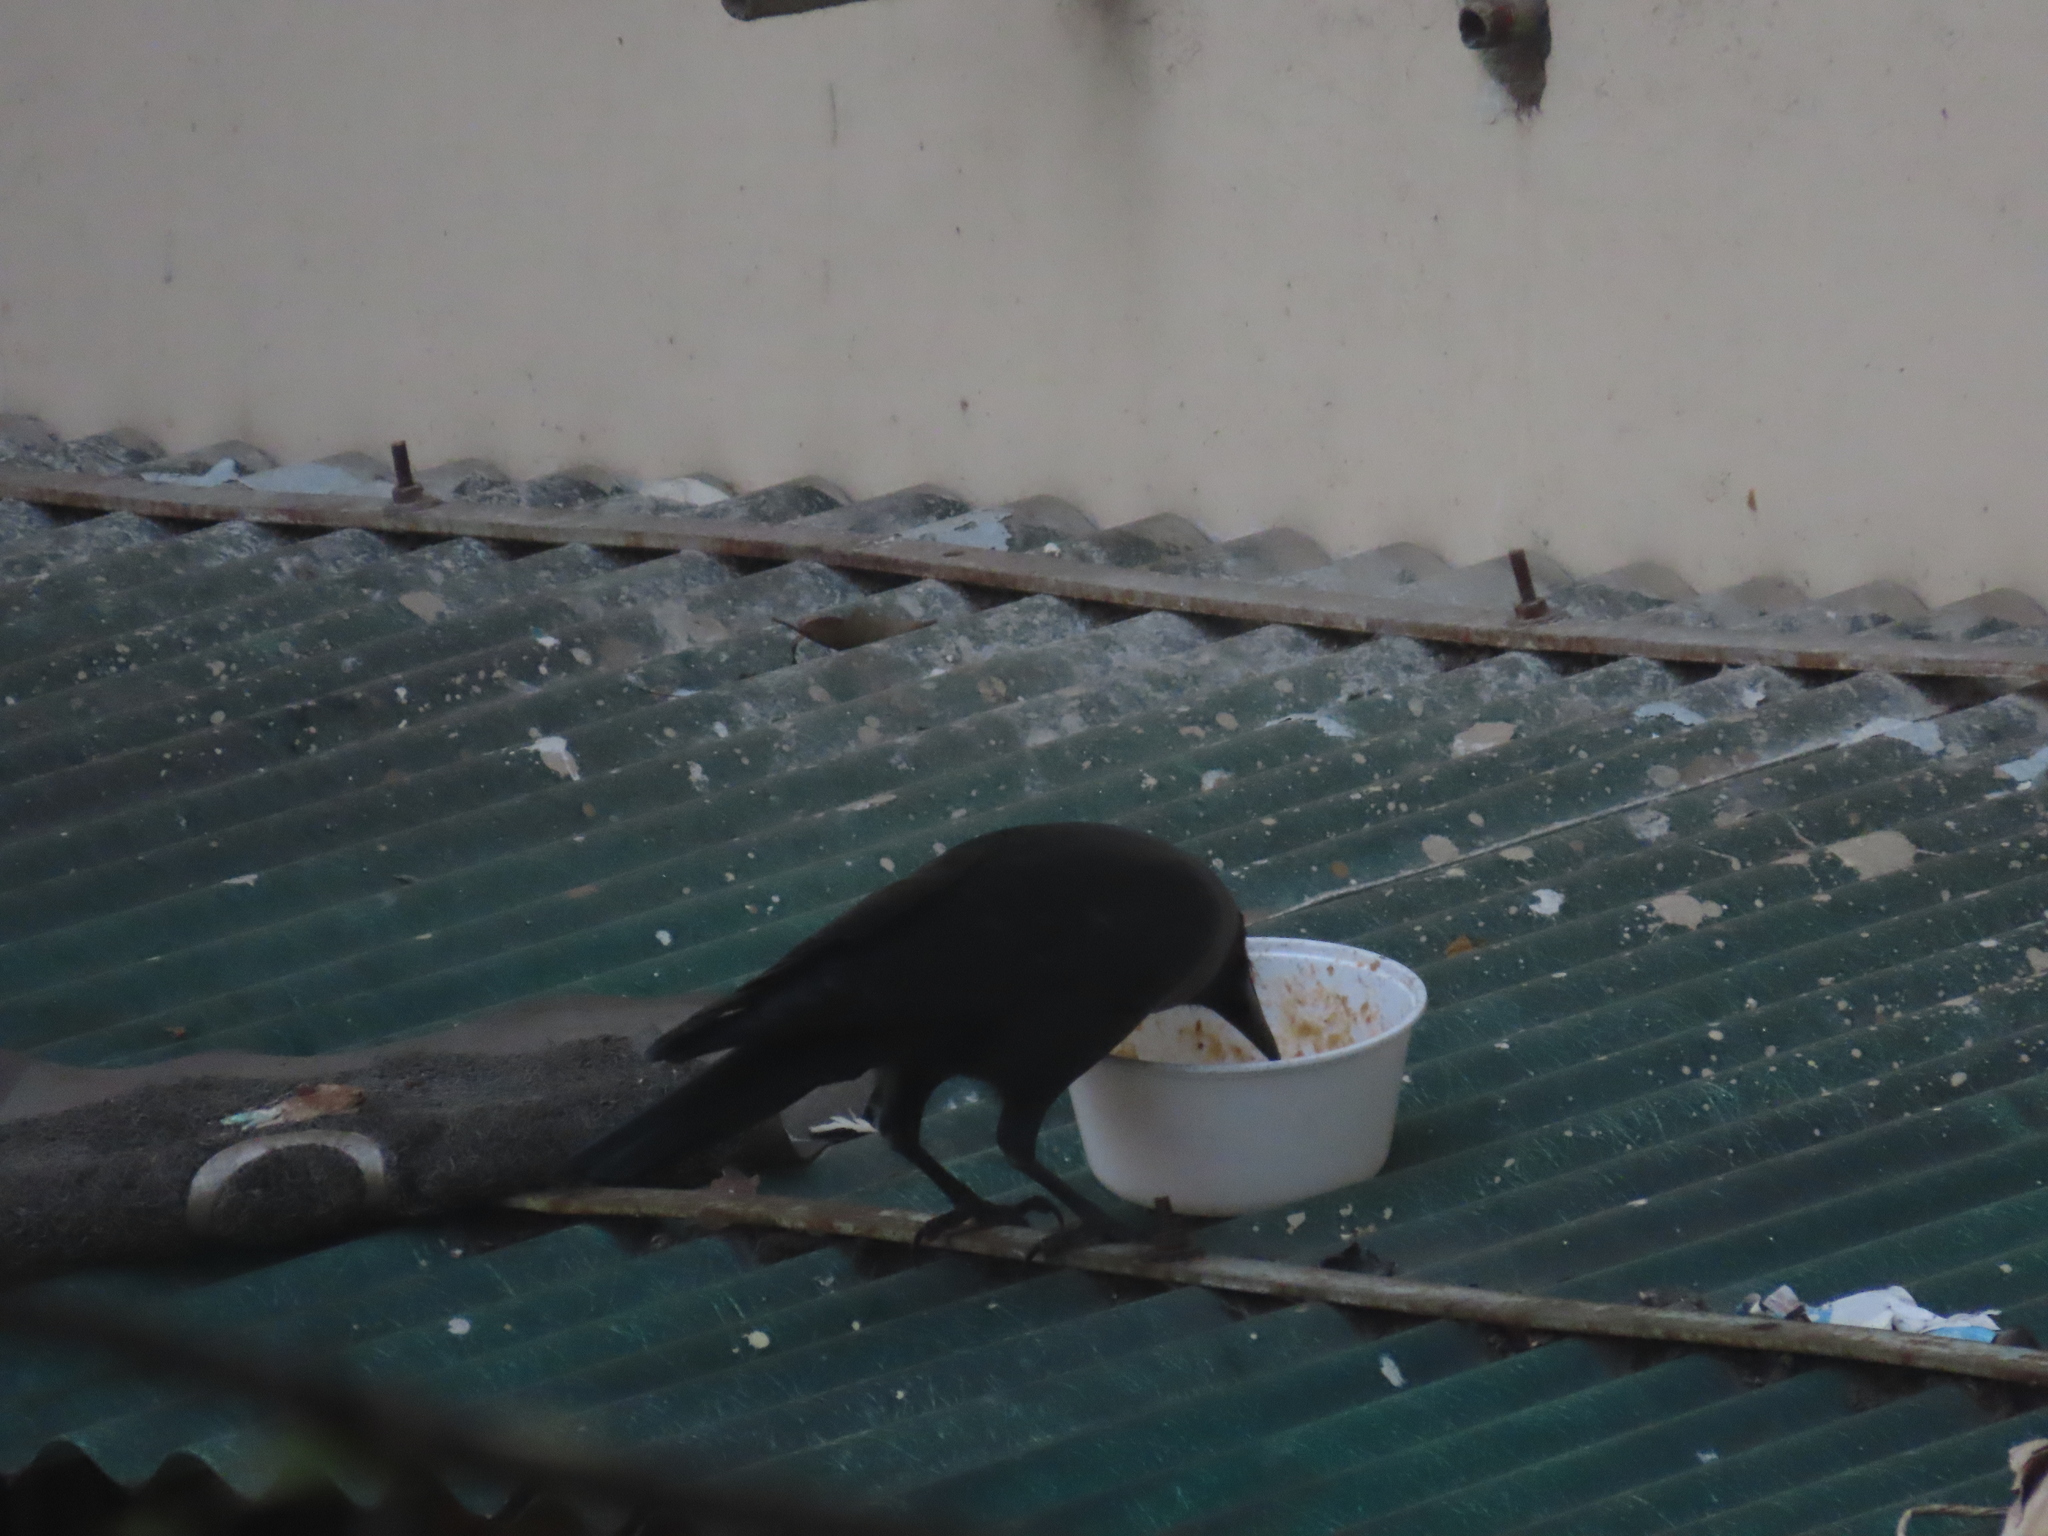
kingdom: Animalia
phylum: Chordata
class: Aves
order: Passeriformes
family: Corvidae
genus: Corvus
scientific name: Corvus splendens
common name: House crow
